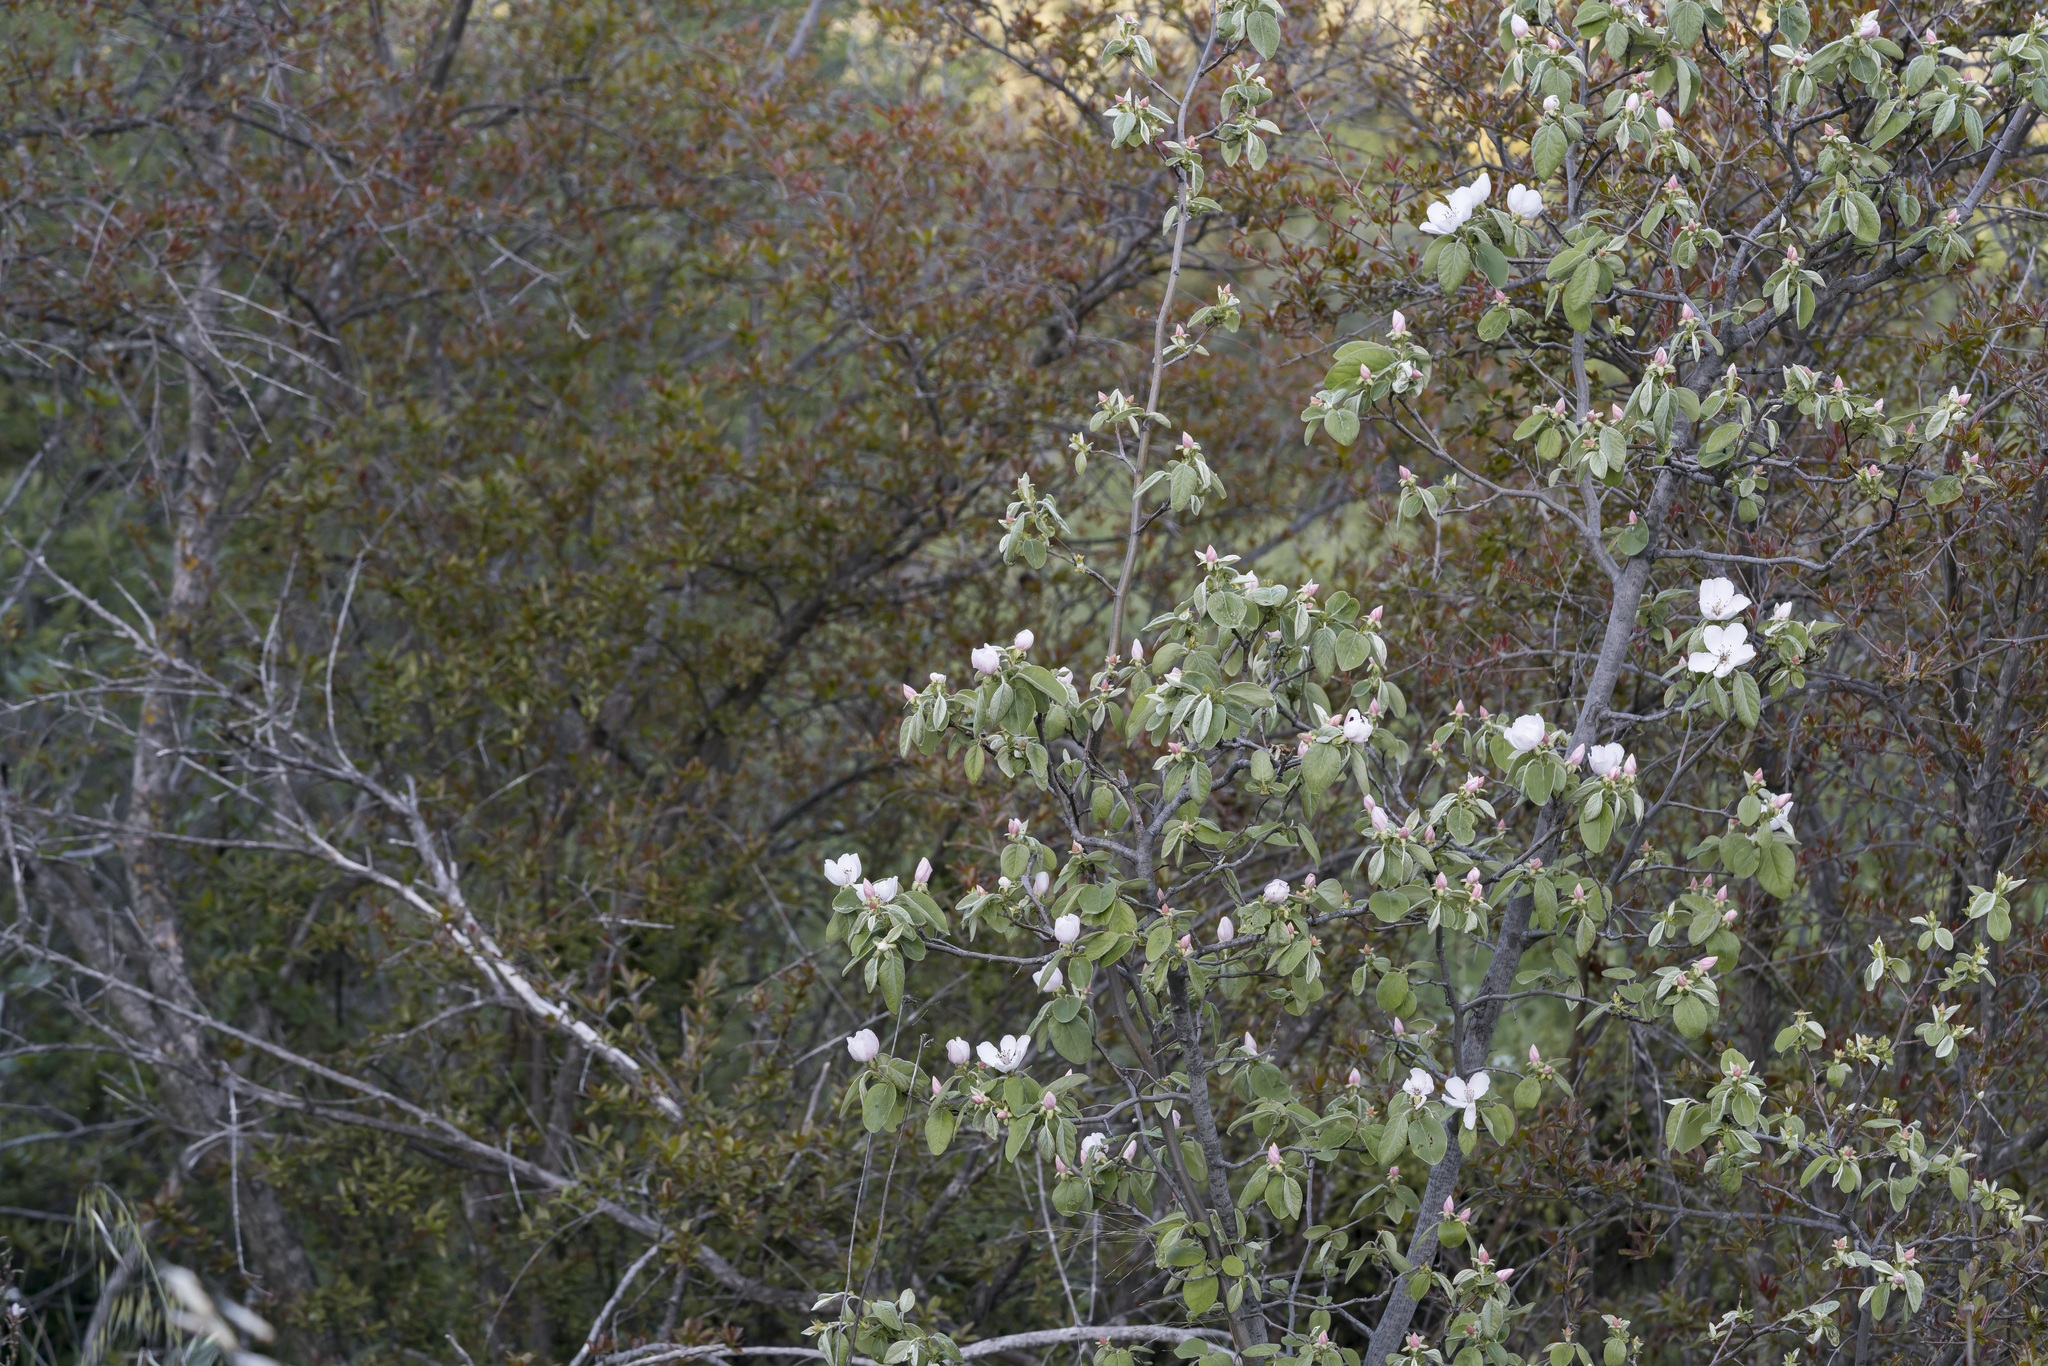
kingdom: Plantae
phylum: Tracheophyta
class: Magnoliopsida
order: Rosales
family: Rosaceae
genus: Cydonia
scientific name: Cydonia oblonga
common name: Quince
